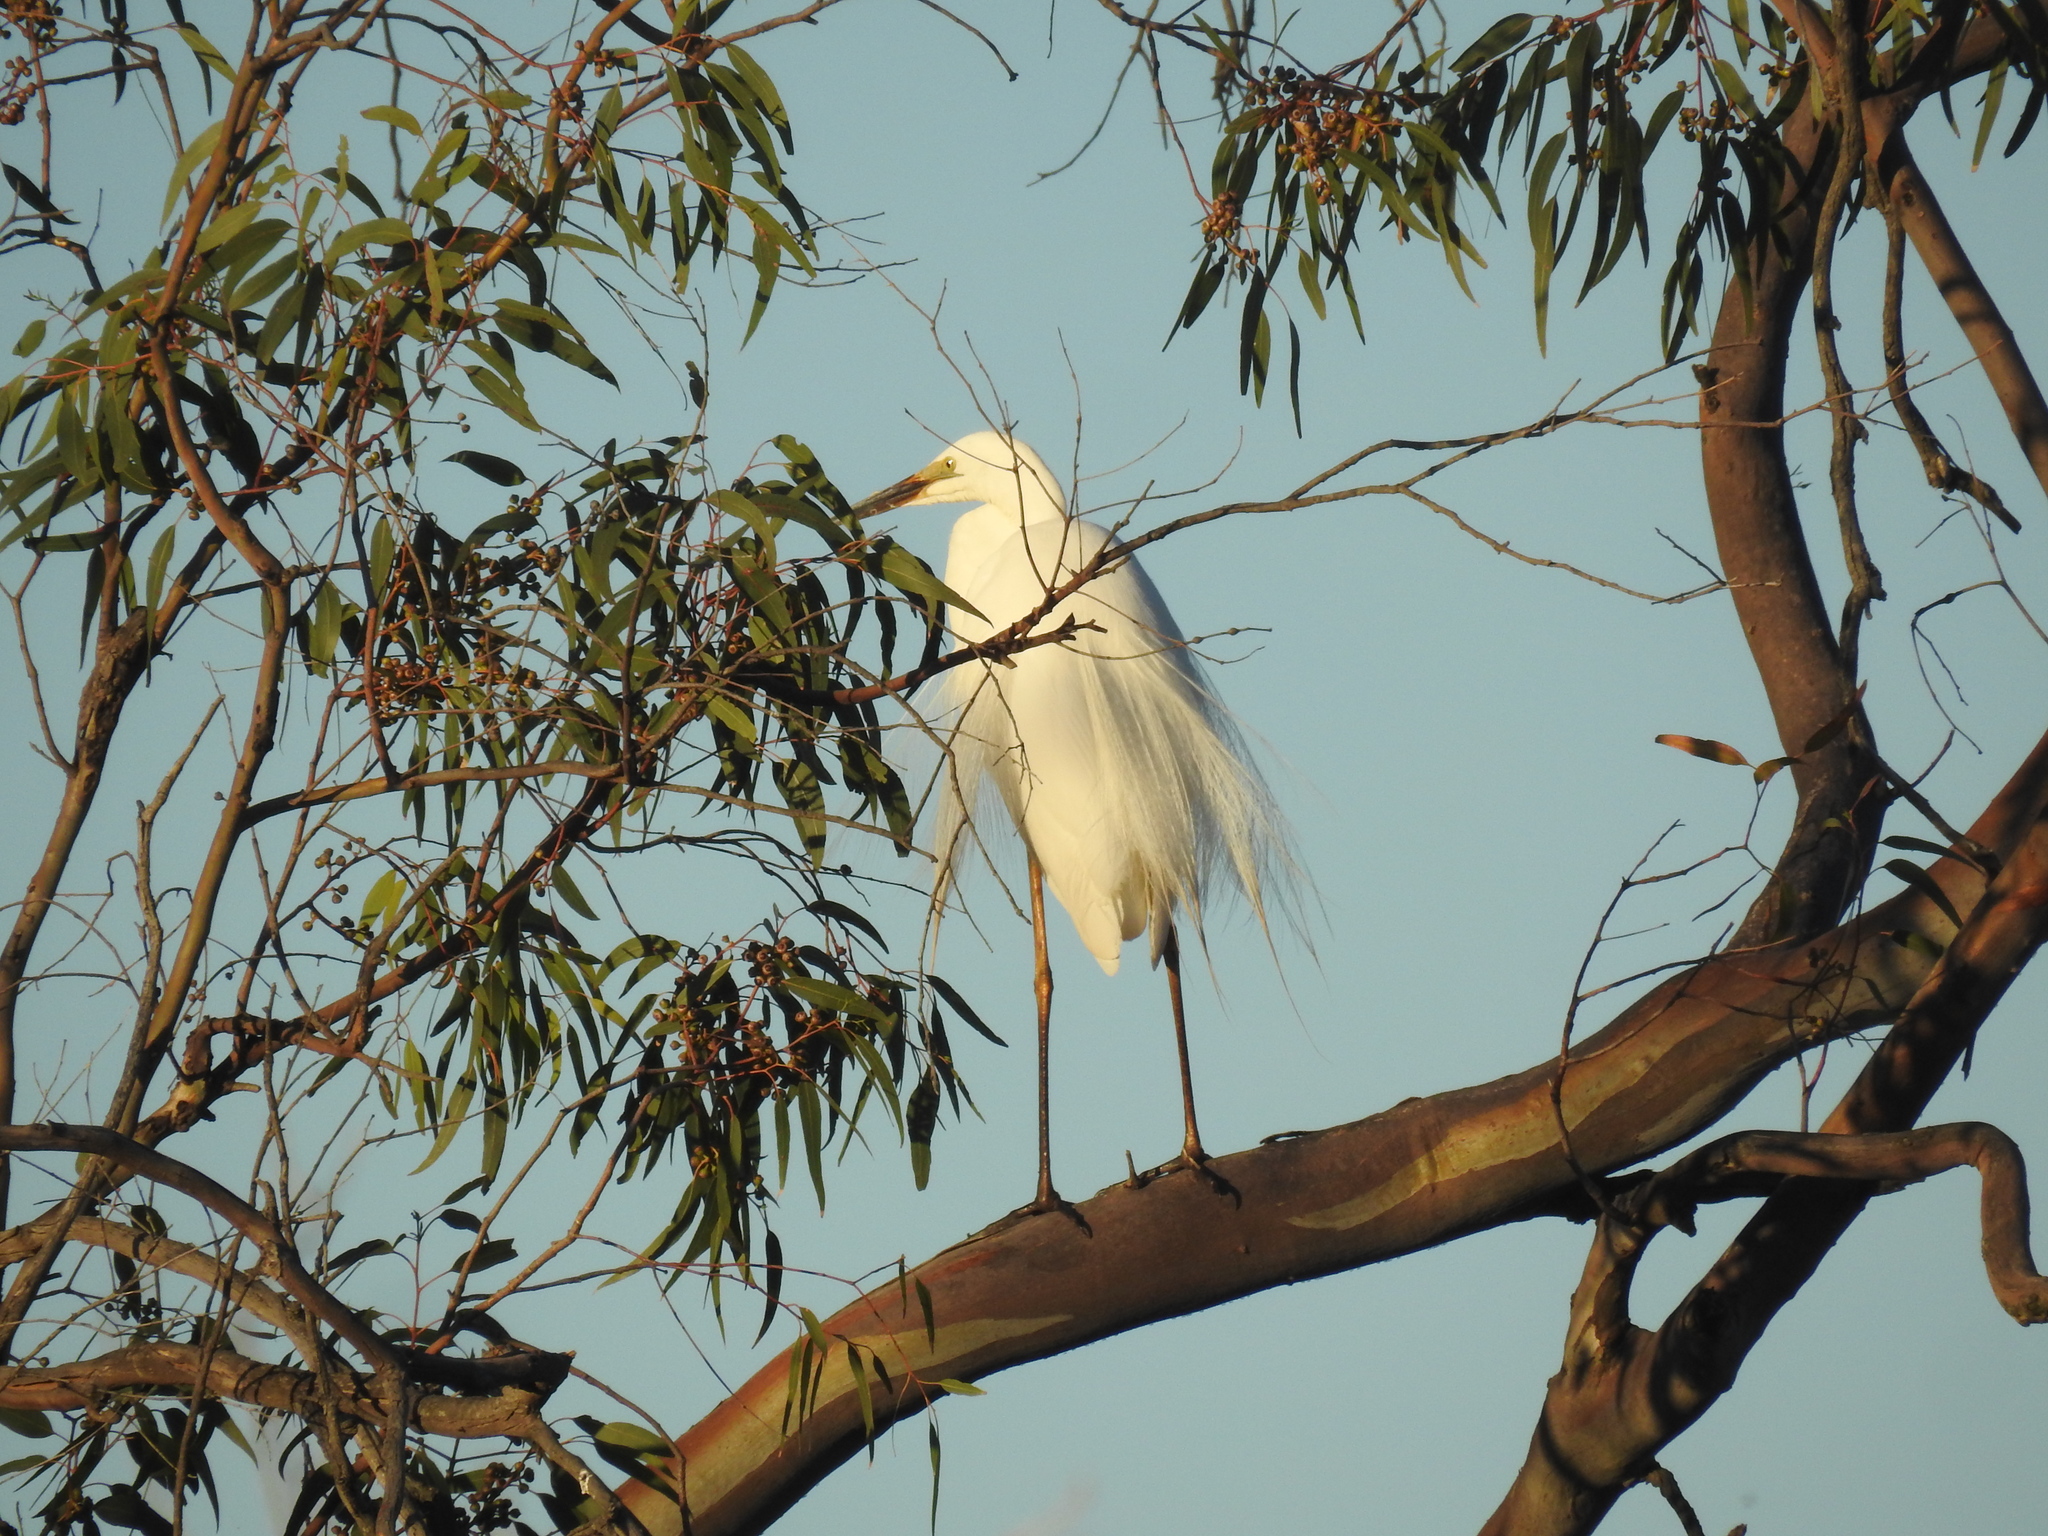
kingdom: Animalia
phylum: Chordata
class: Aves
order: Pelecaniformes
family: Ardeidae
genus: Ardea
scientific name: Ardea alba
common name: Great egret
